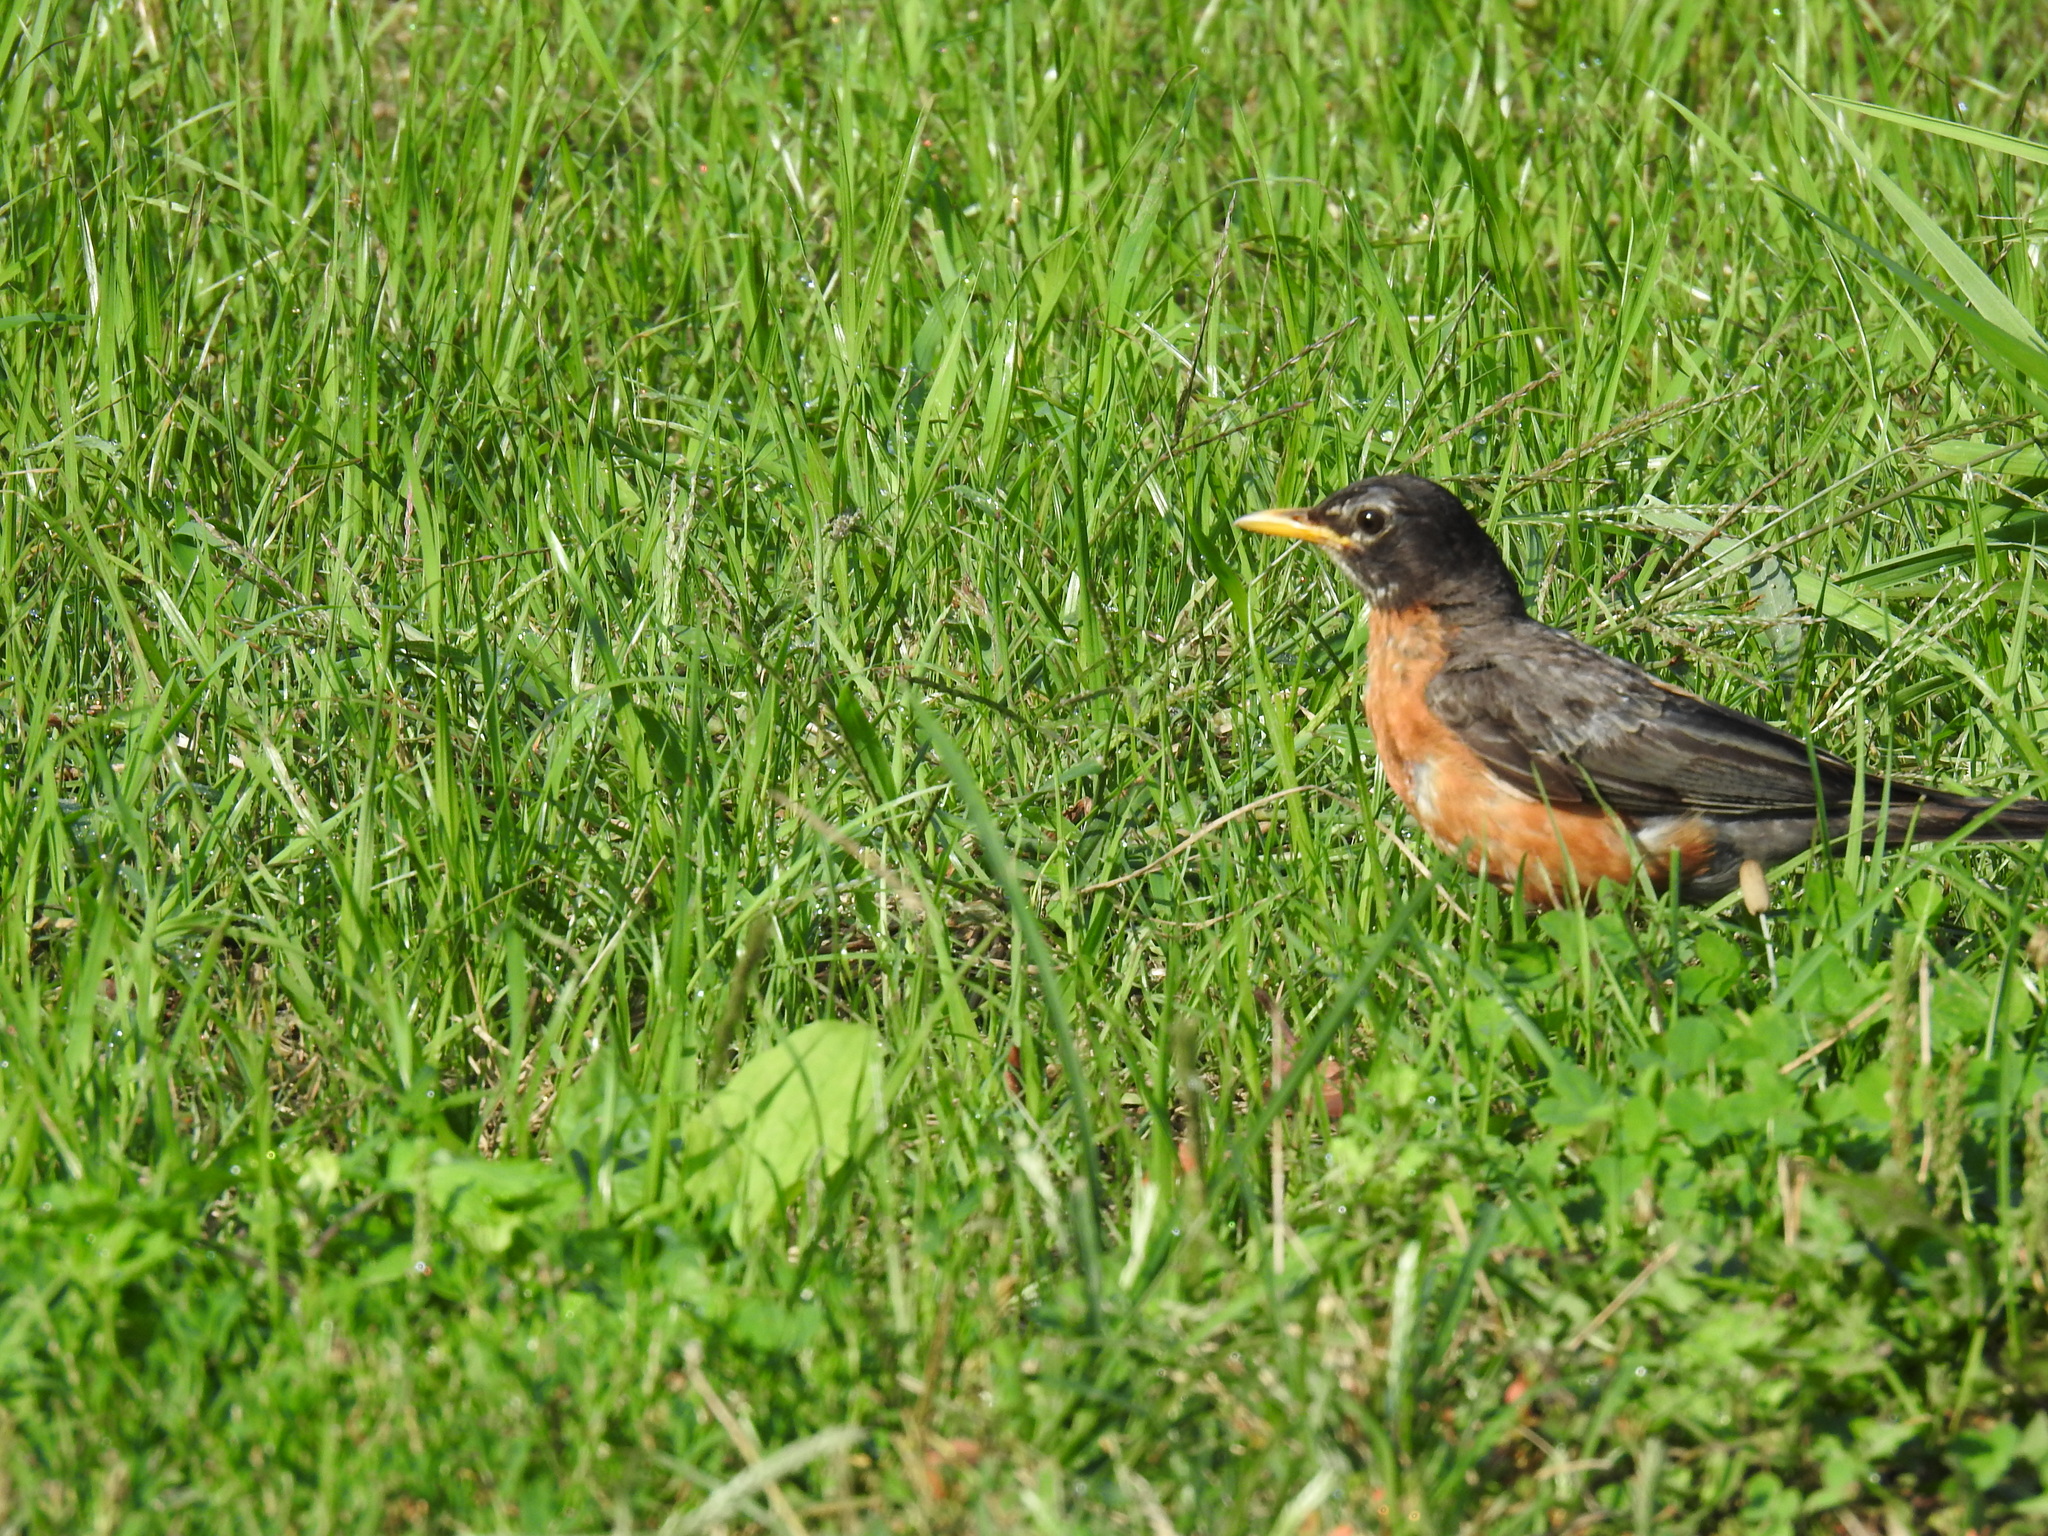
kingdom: Animalia
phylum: Chordata
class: Aves
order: Passeriformes
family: Turdidae
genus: Turdus
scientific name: Turdus migratorius
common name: American robin
